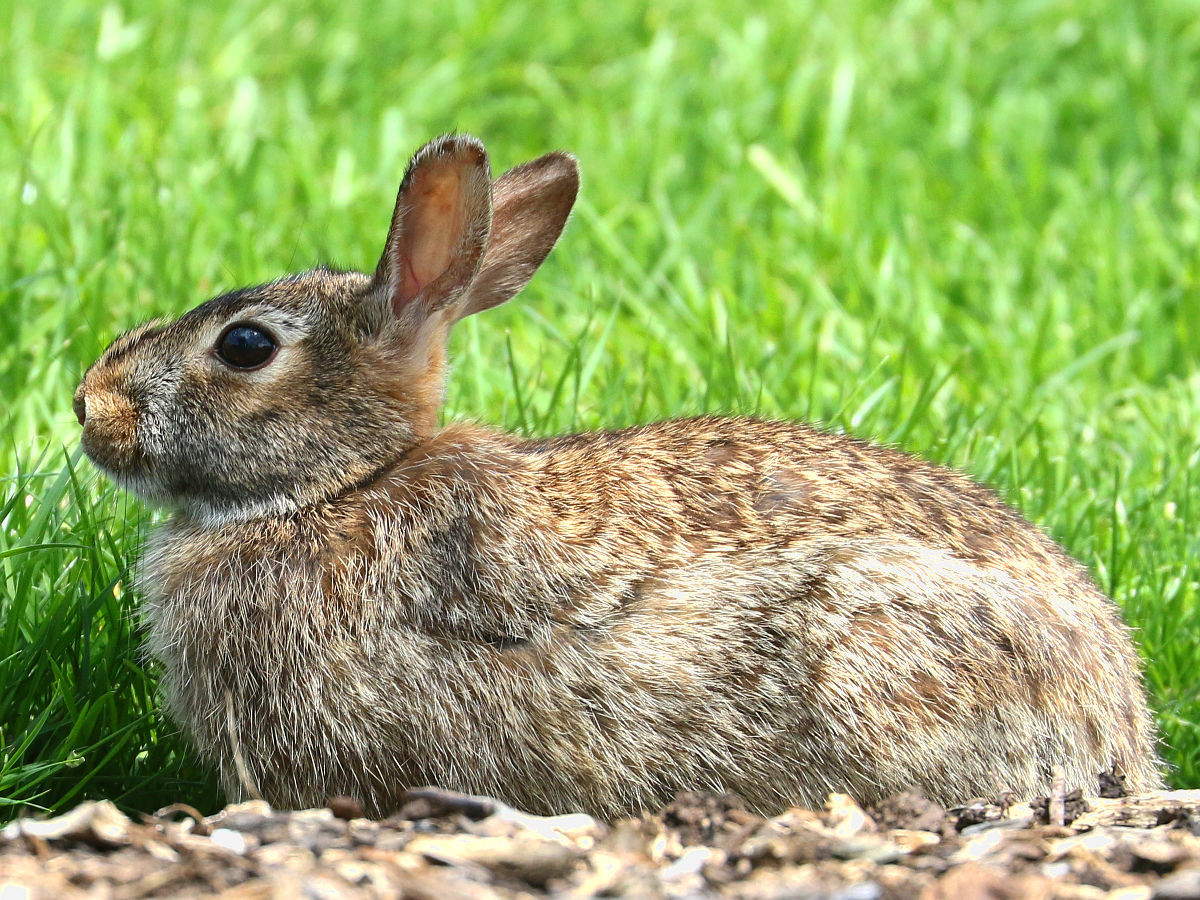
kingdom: Animalia
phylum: Chordata
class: Mammalia
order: Lagomorpha
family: Leporidae
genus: Sylvilagus
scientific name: Sylvilagus floridanus
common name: Eastern cottontail
